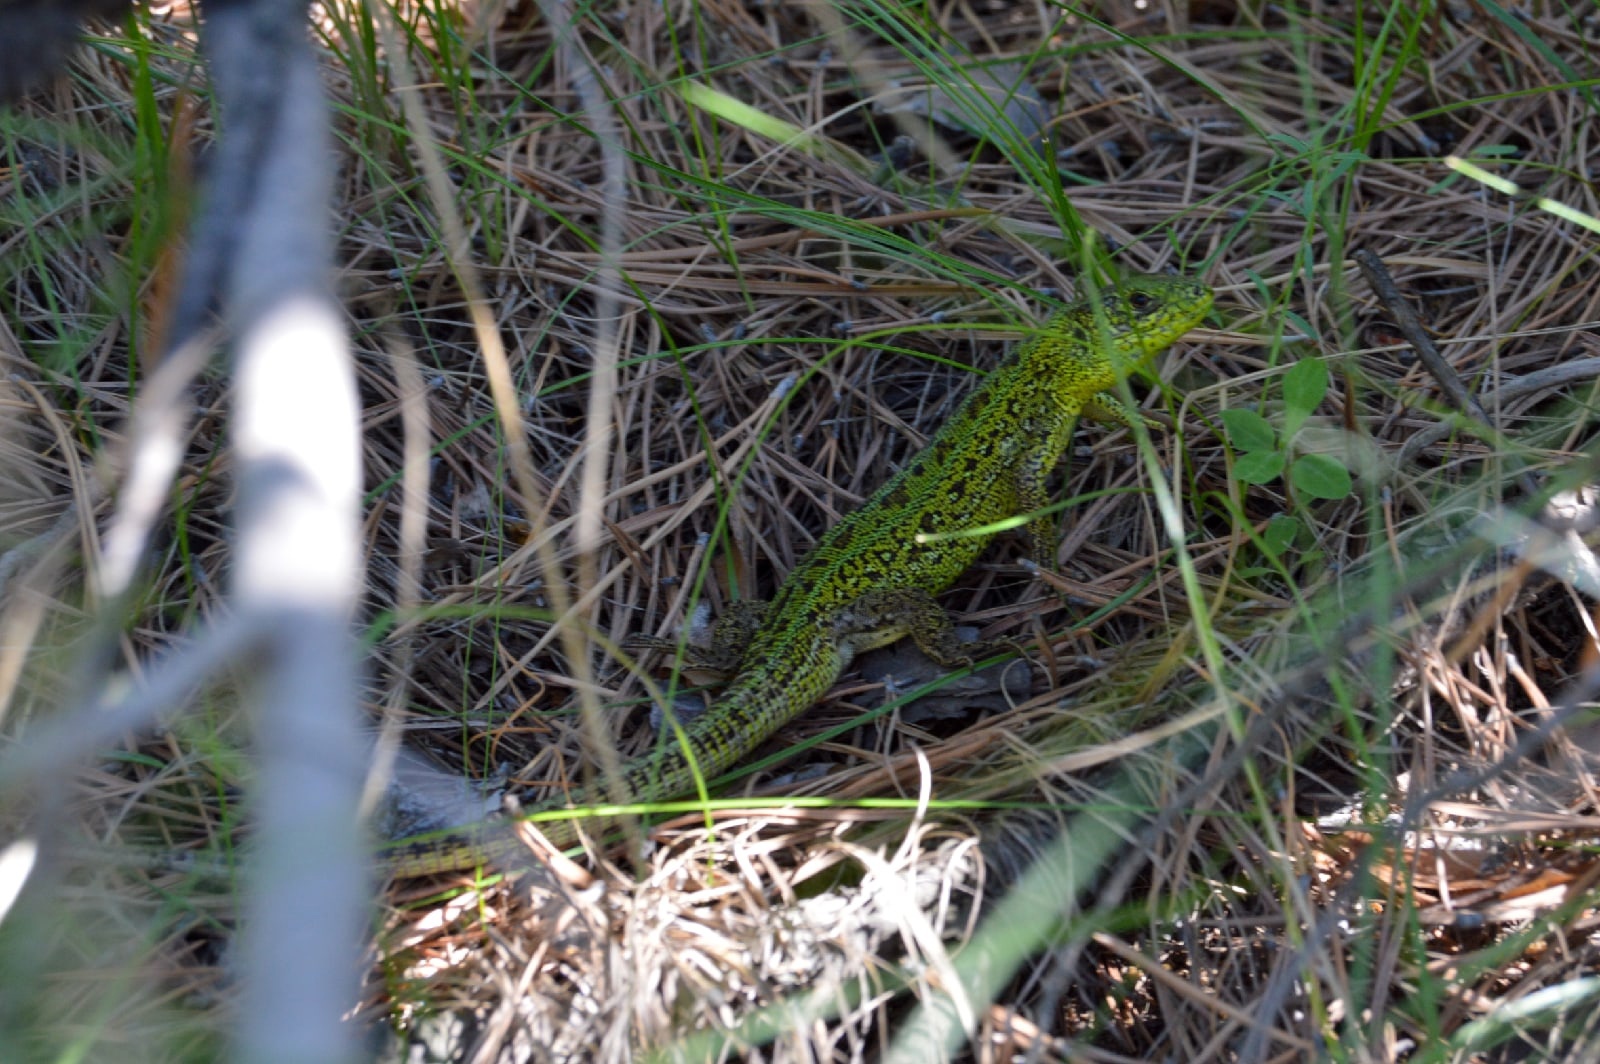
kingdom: Animalia
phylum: Chordata
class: Squamata
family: Lacertidae
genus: Lacerta
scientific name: Lacerta agilis
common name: Sand lizard
